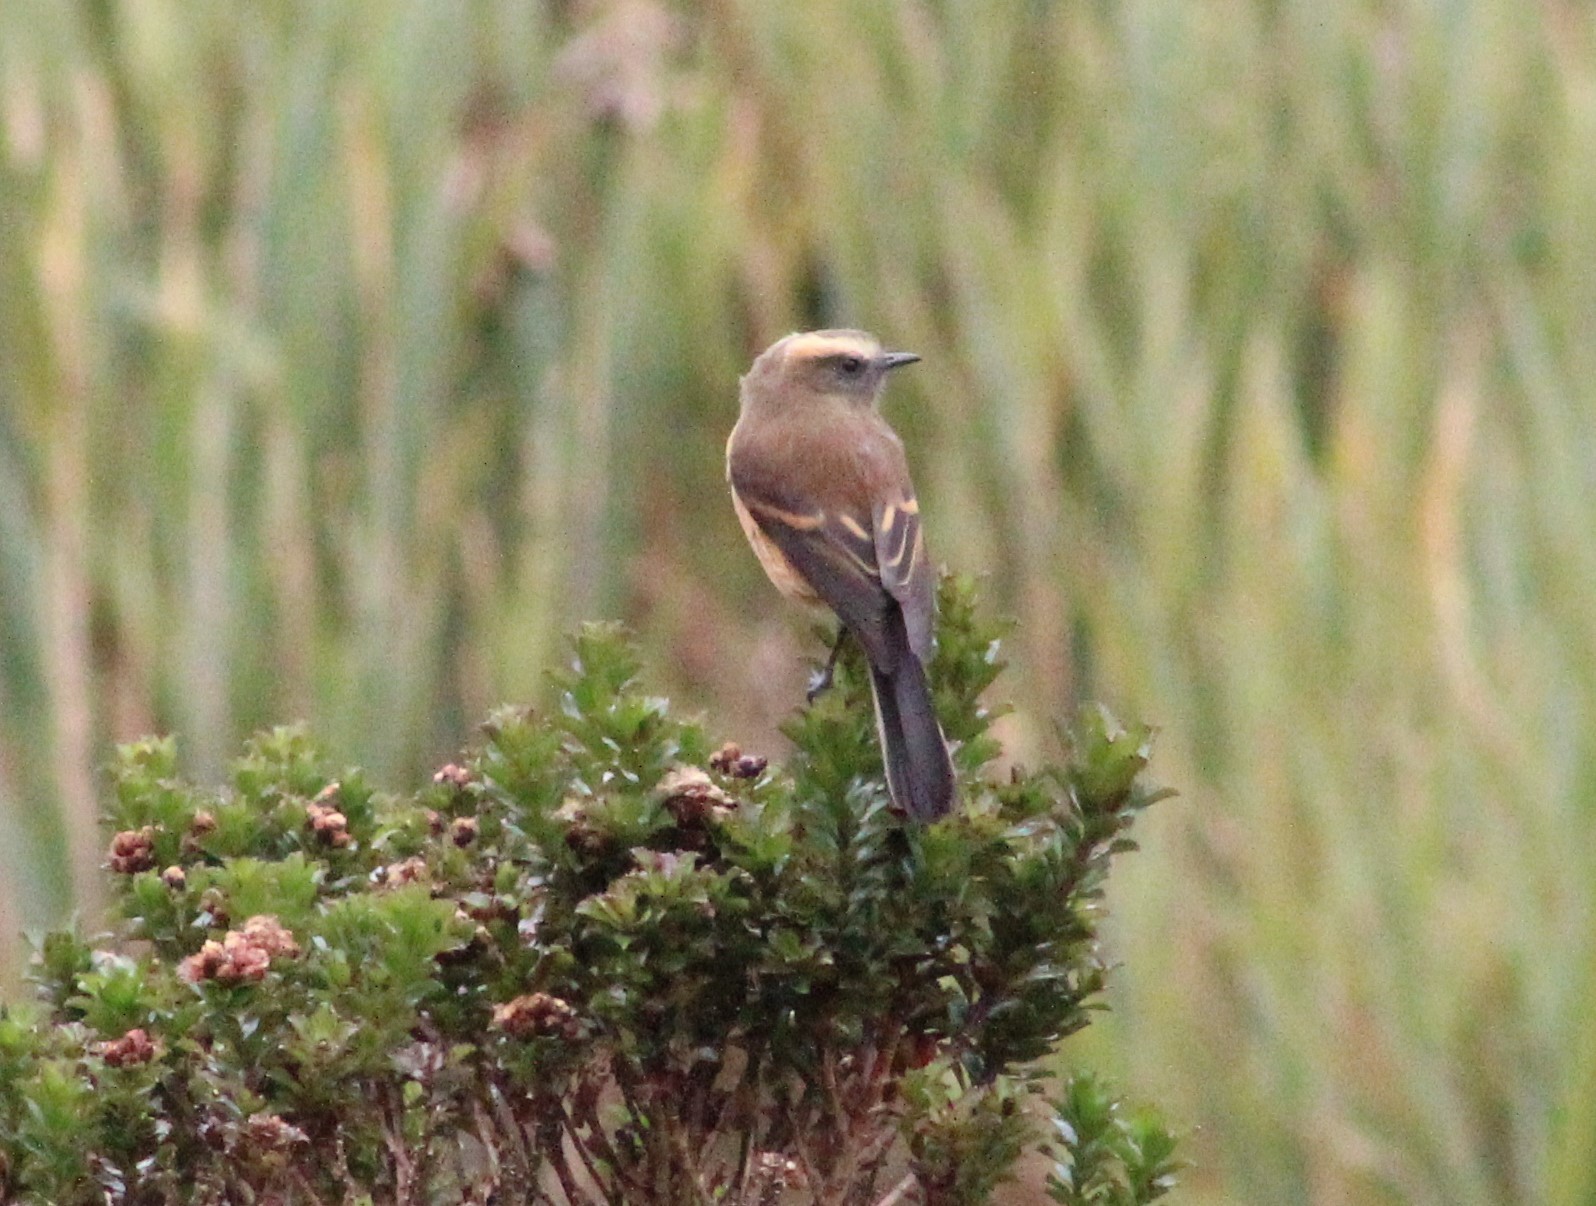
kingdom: Animalia
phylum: Chordata
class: Aves
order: Passeriformes
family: Tyrannidae
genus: Ochthoeca
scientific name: Ochthoeca fumicolor
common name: Brown-backed chat-tyrant
